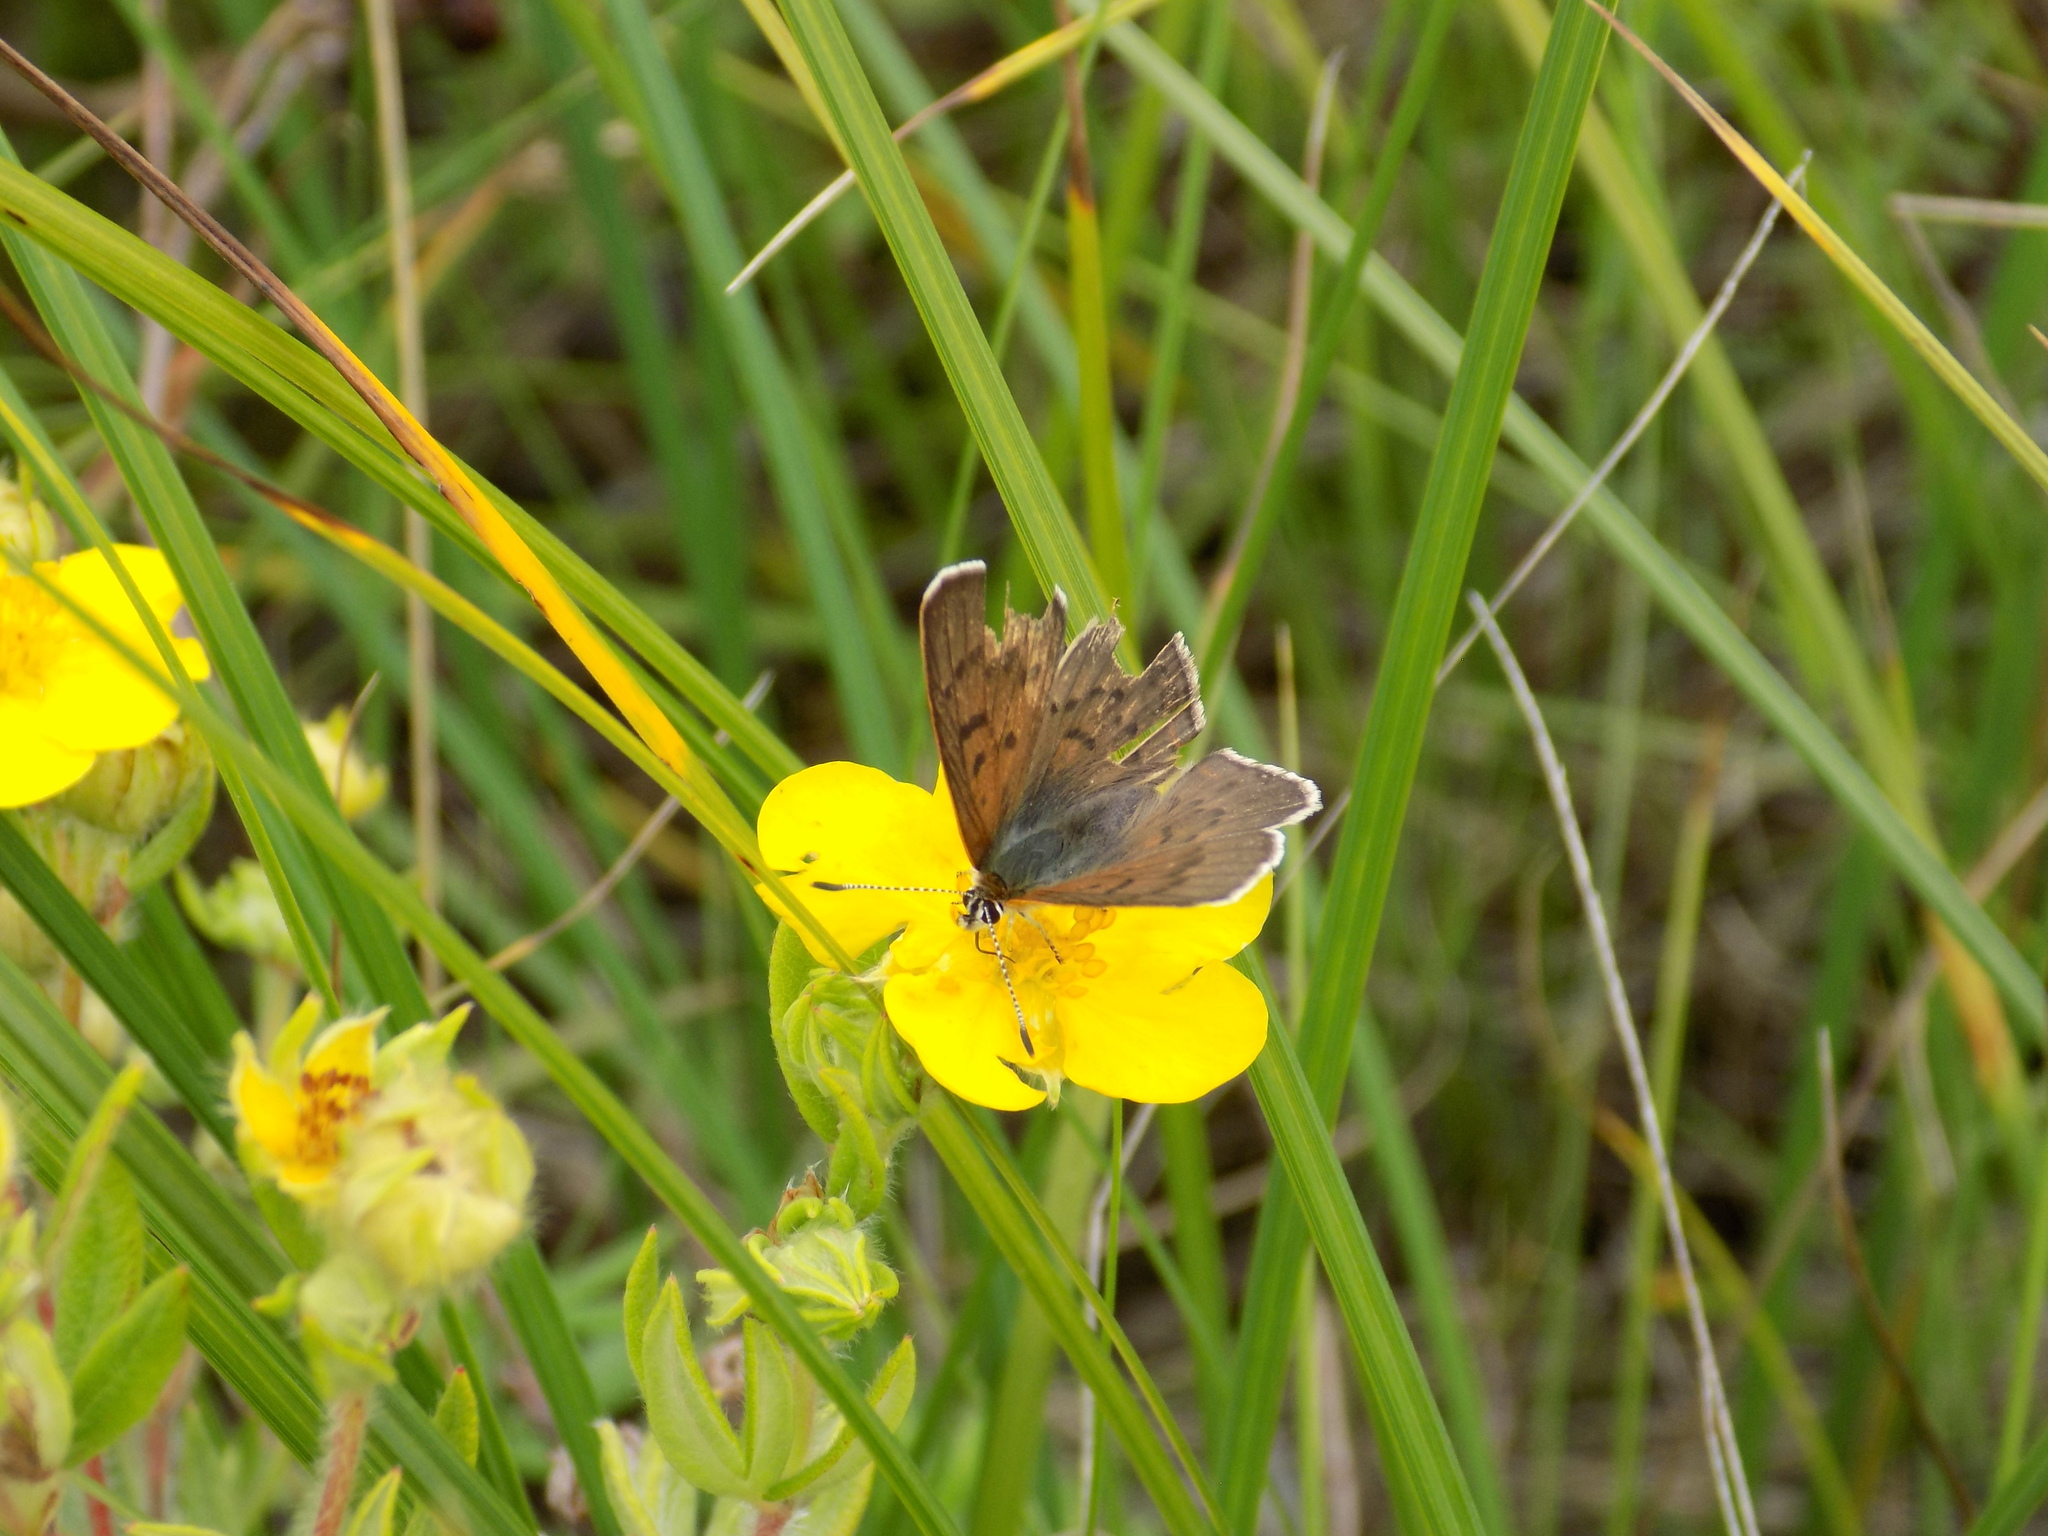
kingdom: Animalia
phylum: Arthropoda
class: Insecta
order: Lepidoptera
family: Lycaenidae
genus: Tharsalea
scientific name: Tharsalea dorcas
